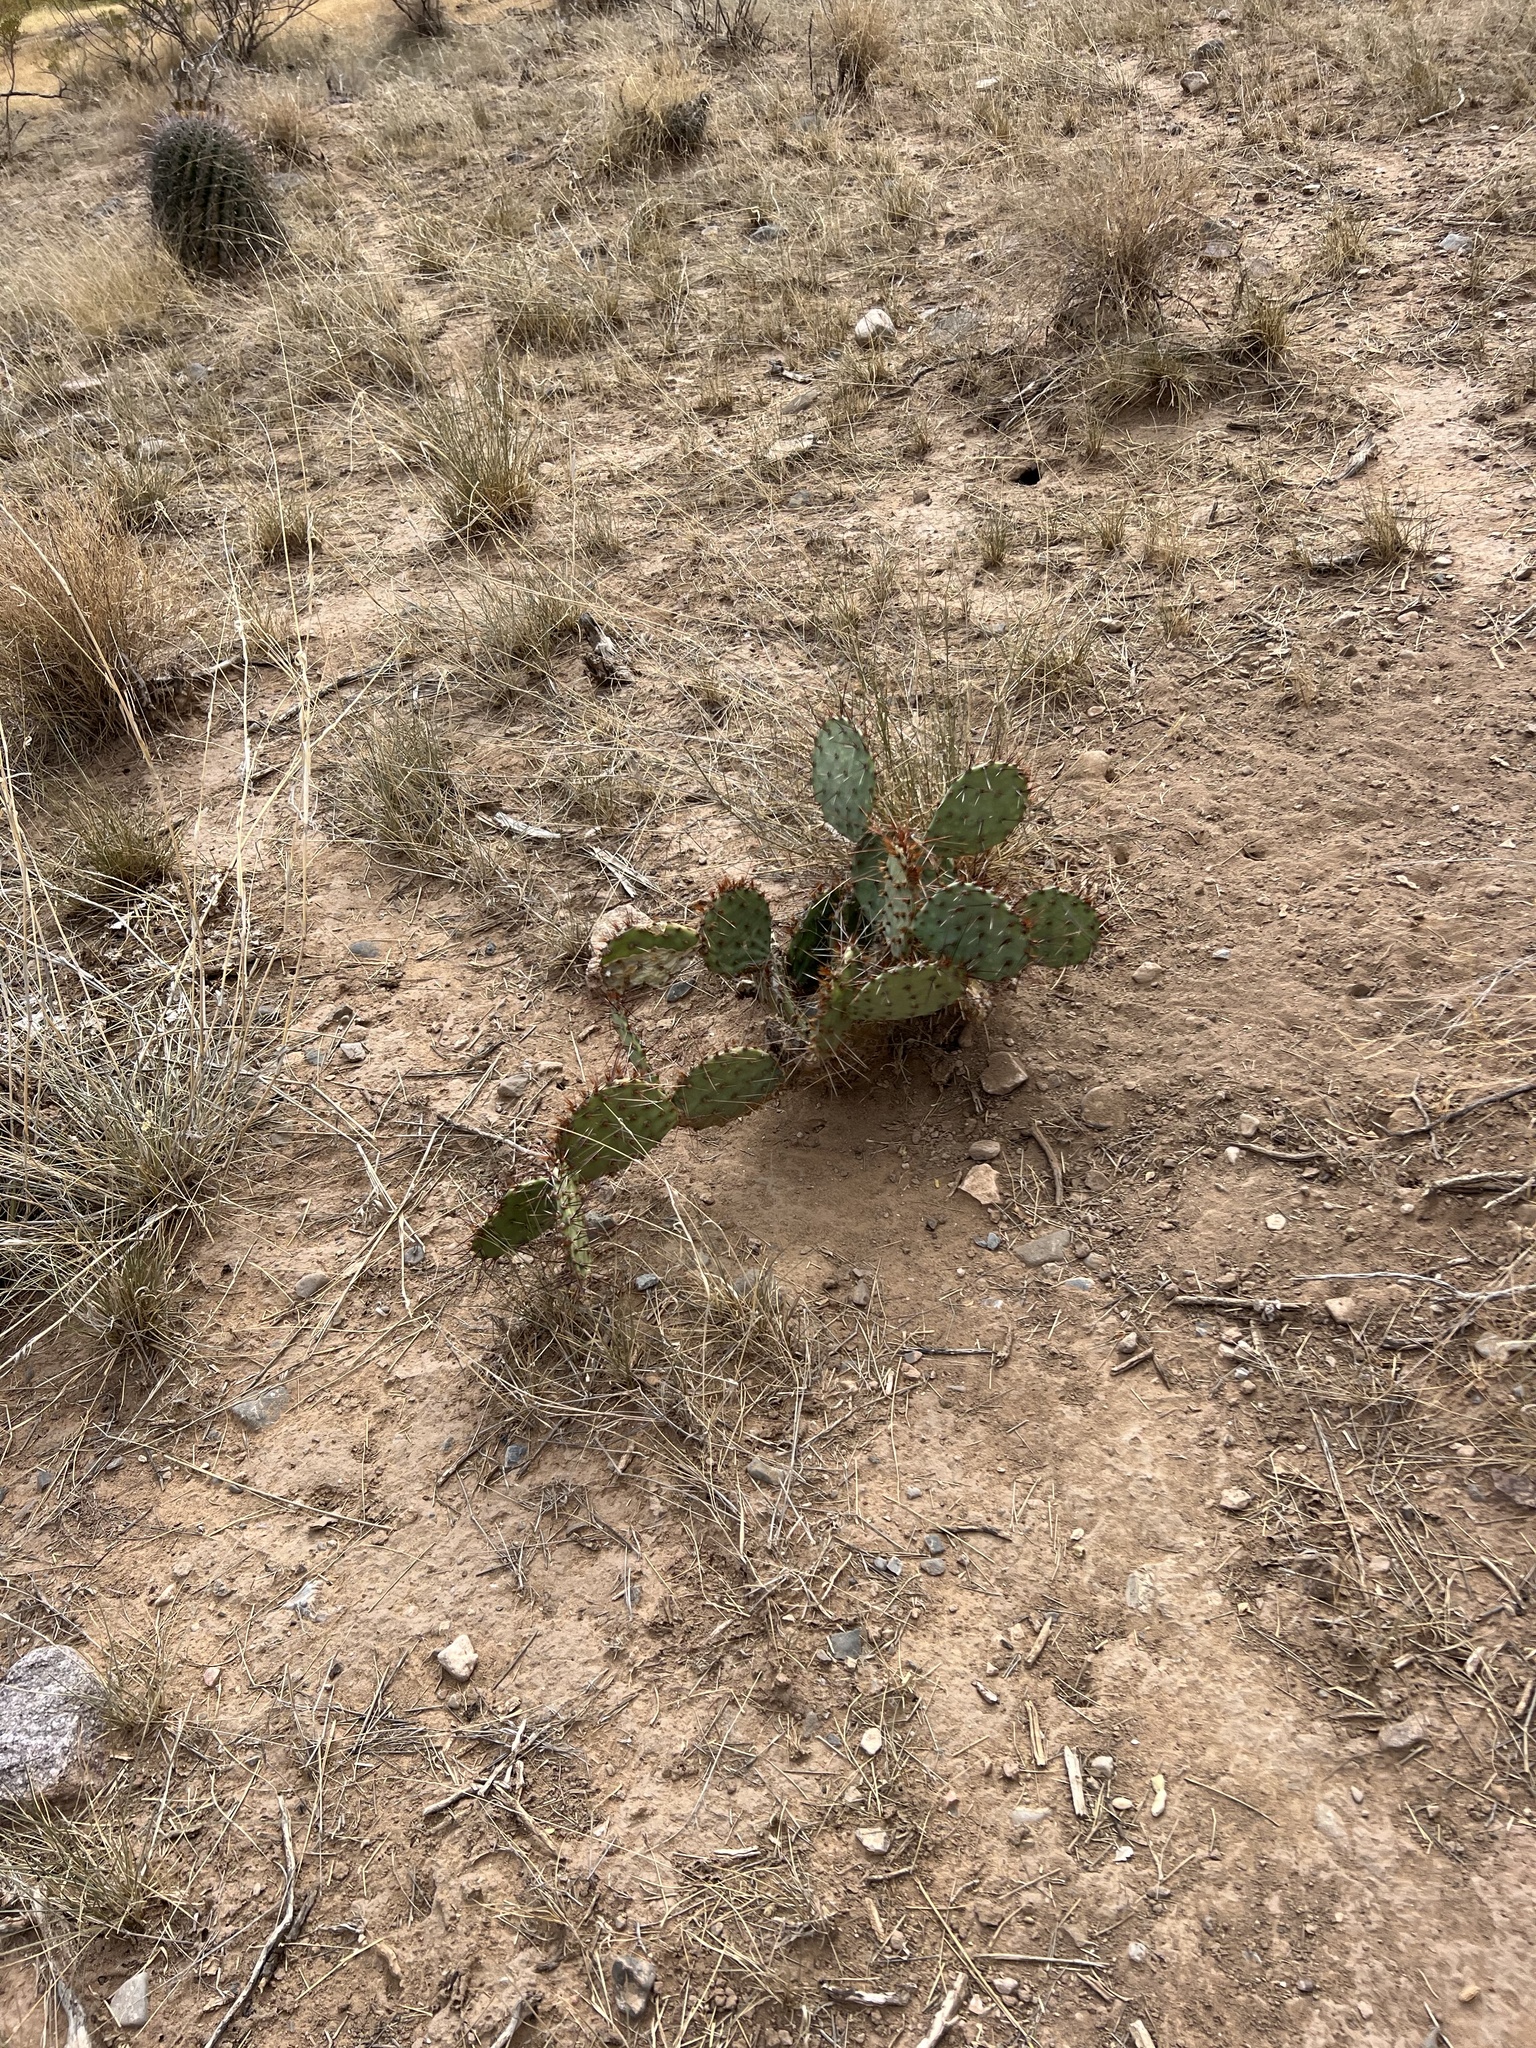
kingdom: Plantae
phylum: Tracheophyta
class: Magnoliopsida
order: Caryophyllales
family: Cactaceae
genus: Opuntia
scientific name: Opuntia phaeacantha
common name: New mexico prickly-pear
